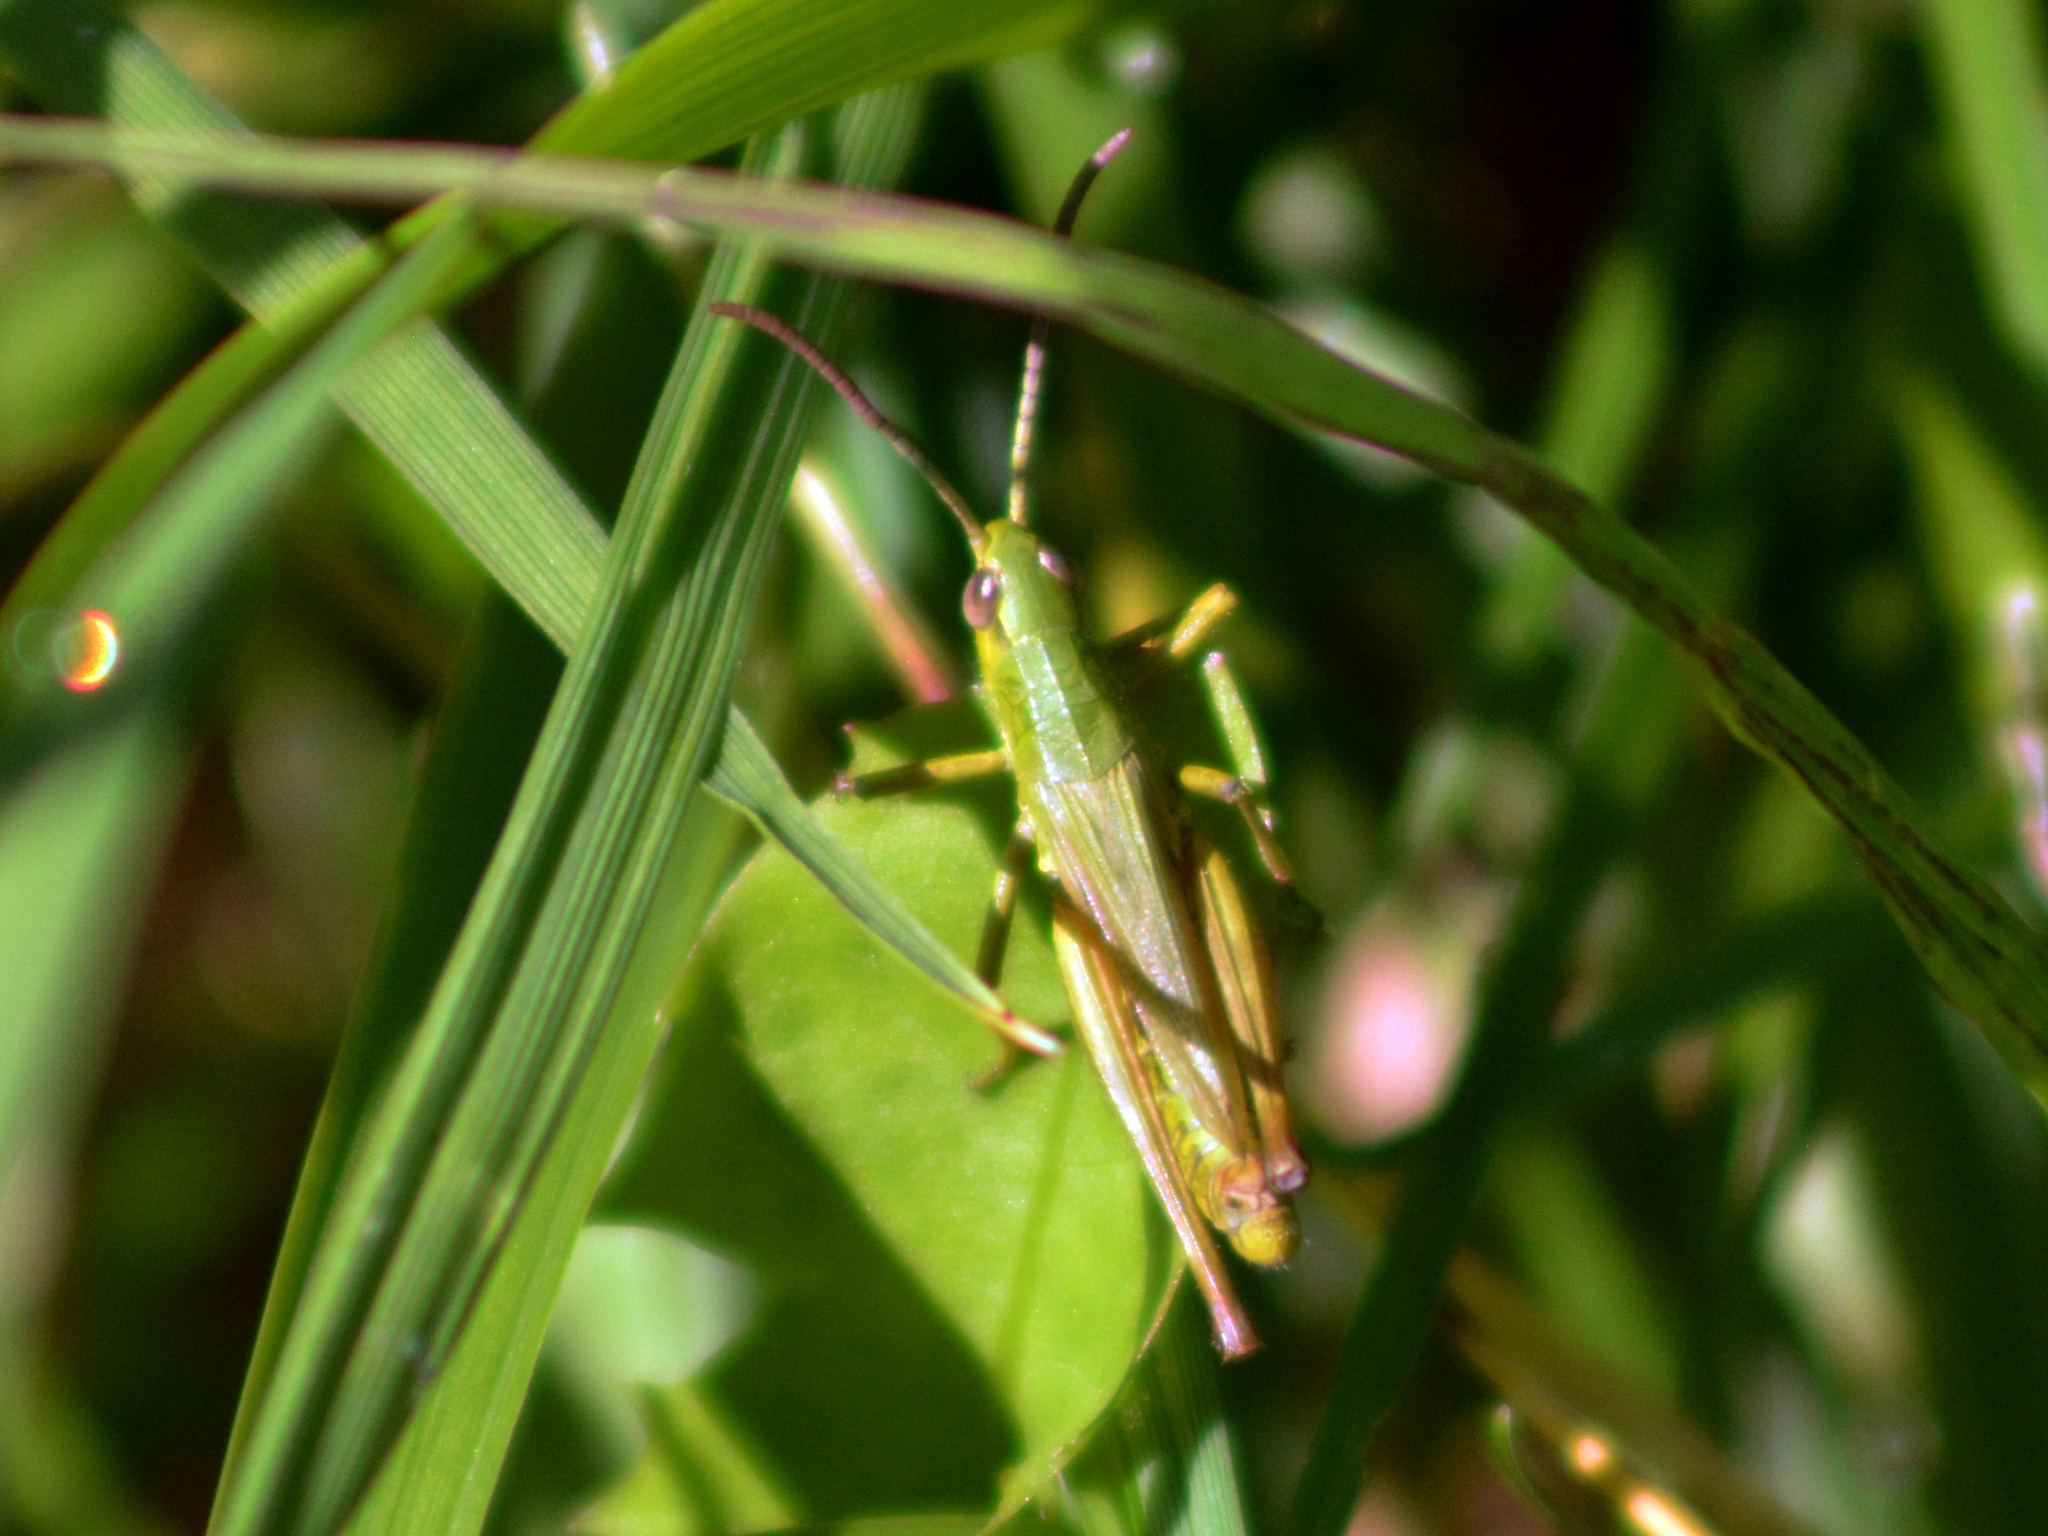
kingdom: Animalia
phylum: Arthropoda
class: Insecta
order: Orthoptera
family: Acrididae
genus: Pseudochorthippus
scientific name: Pseudochorthippus parallelus
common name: Meadow grasshopper
